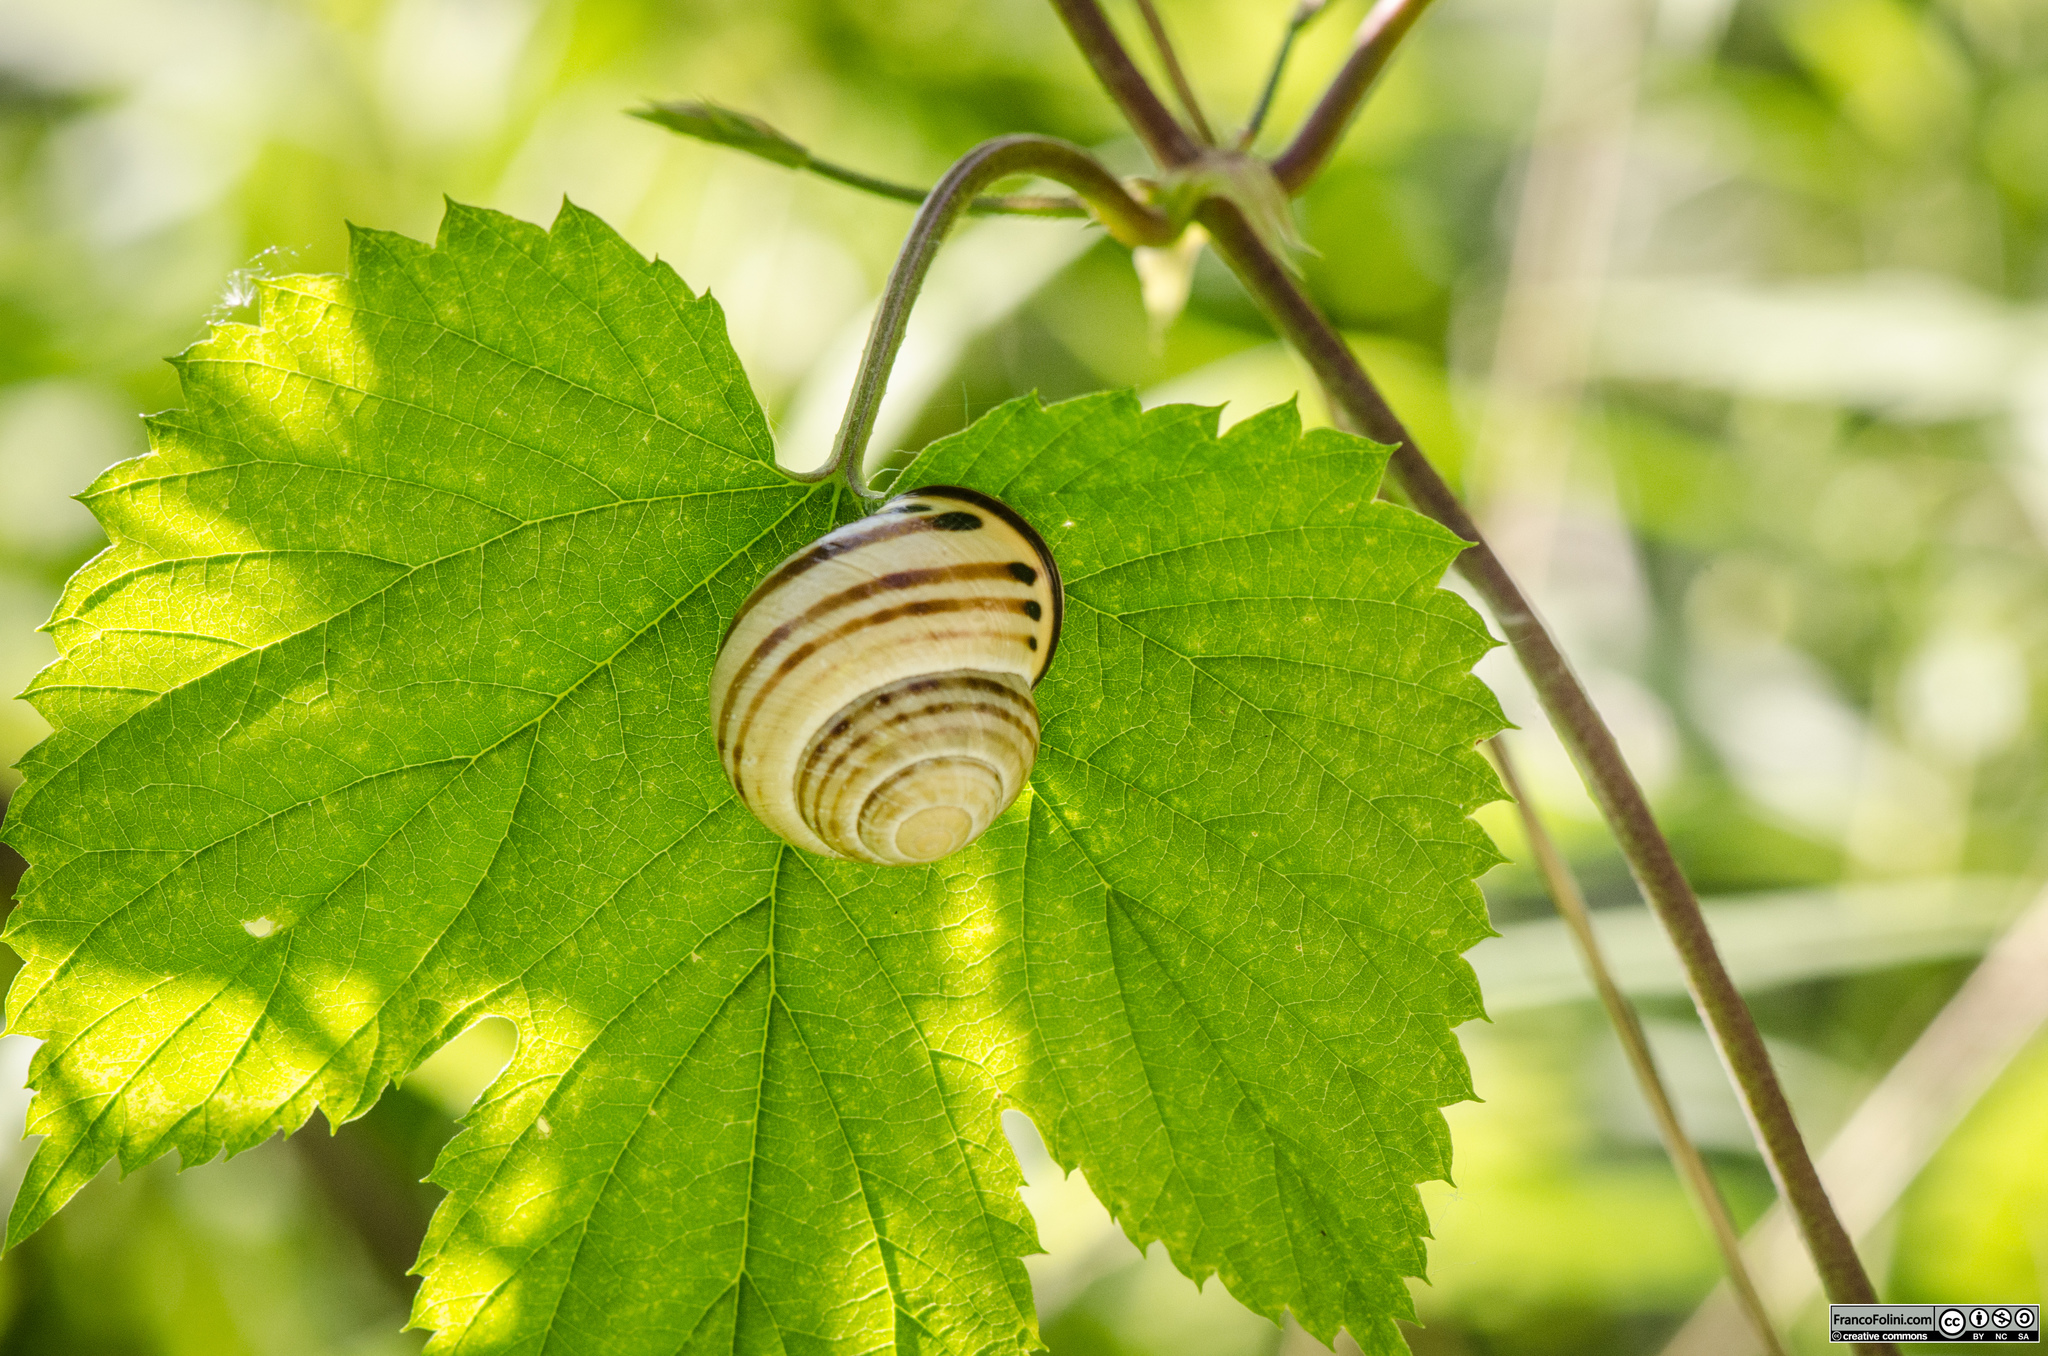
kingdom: Animalia
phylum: Mollusca
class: Gastropoda
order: Stylommatophora
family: Helicidae
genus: Cepaea
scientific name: Cepaea nemoralis
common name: Grovesnail
